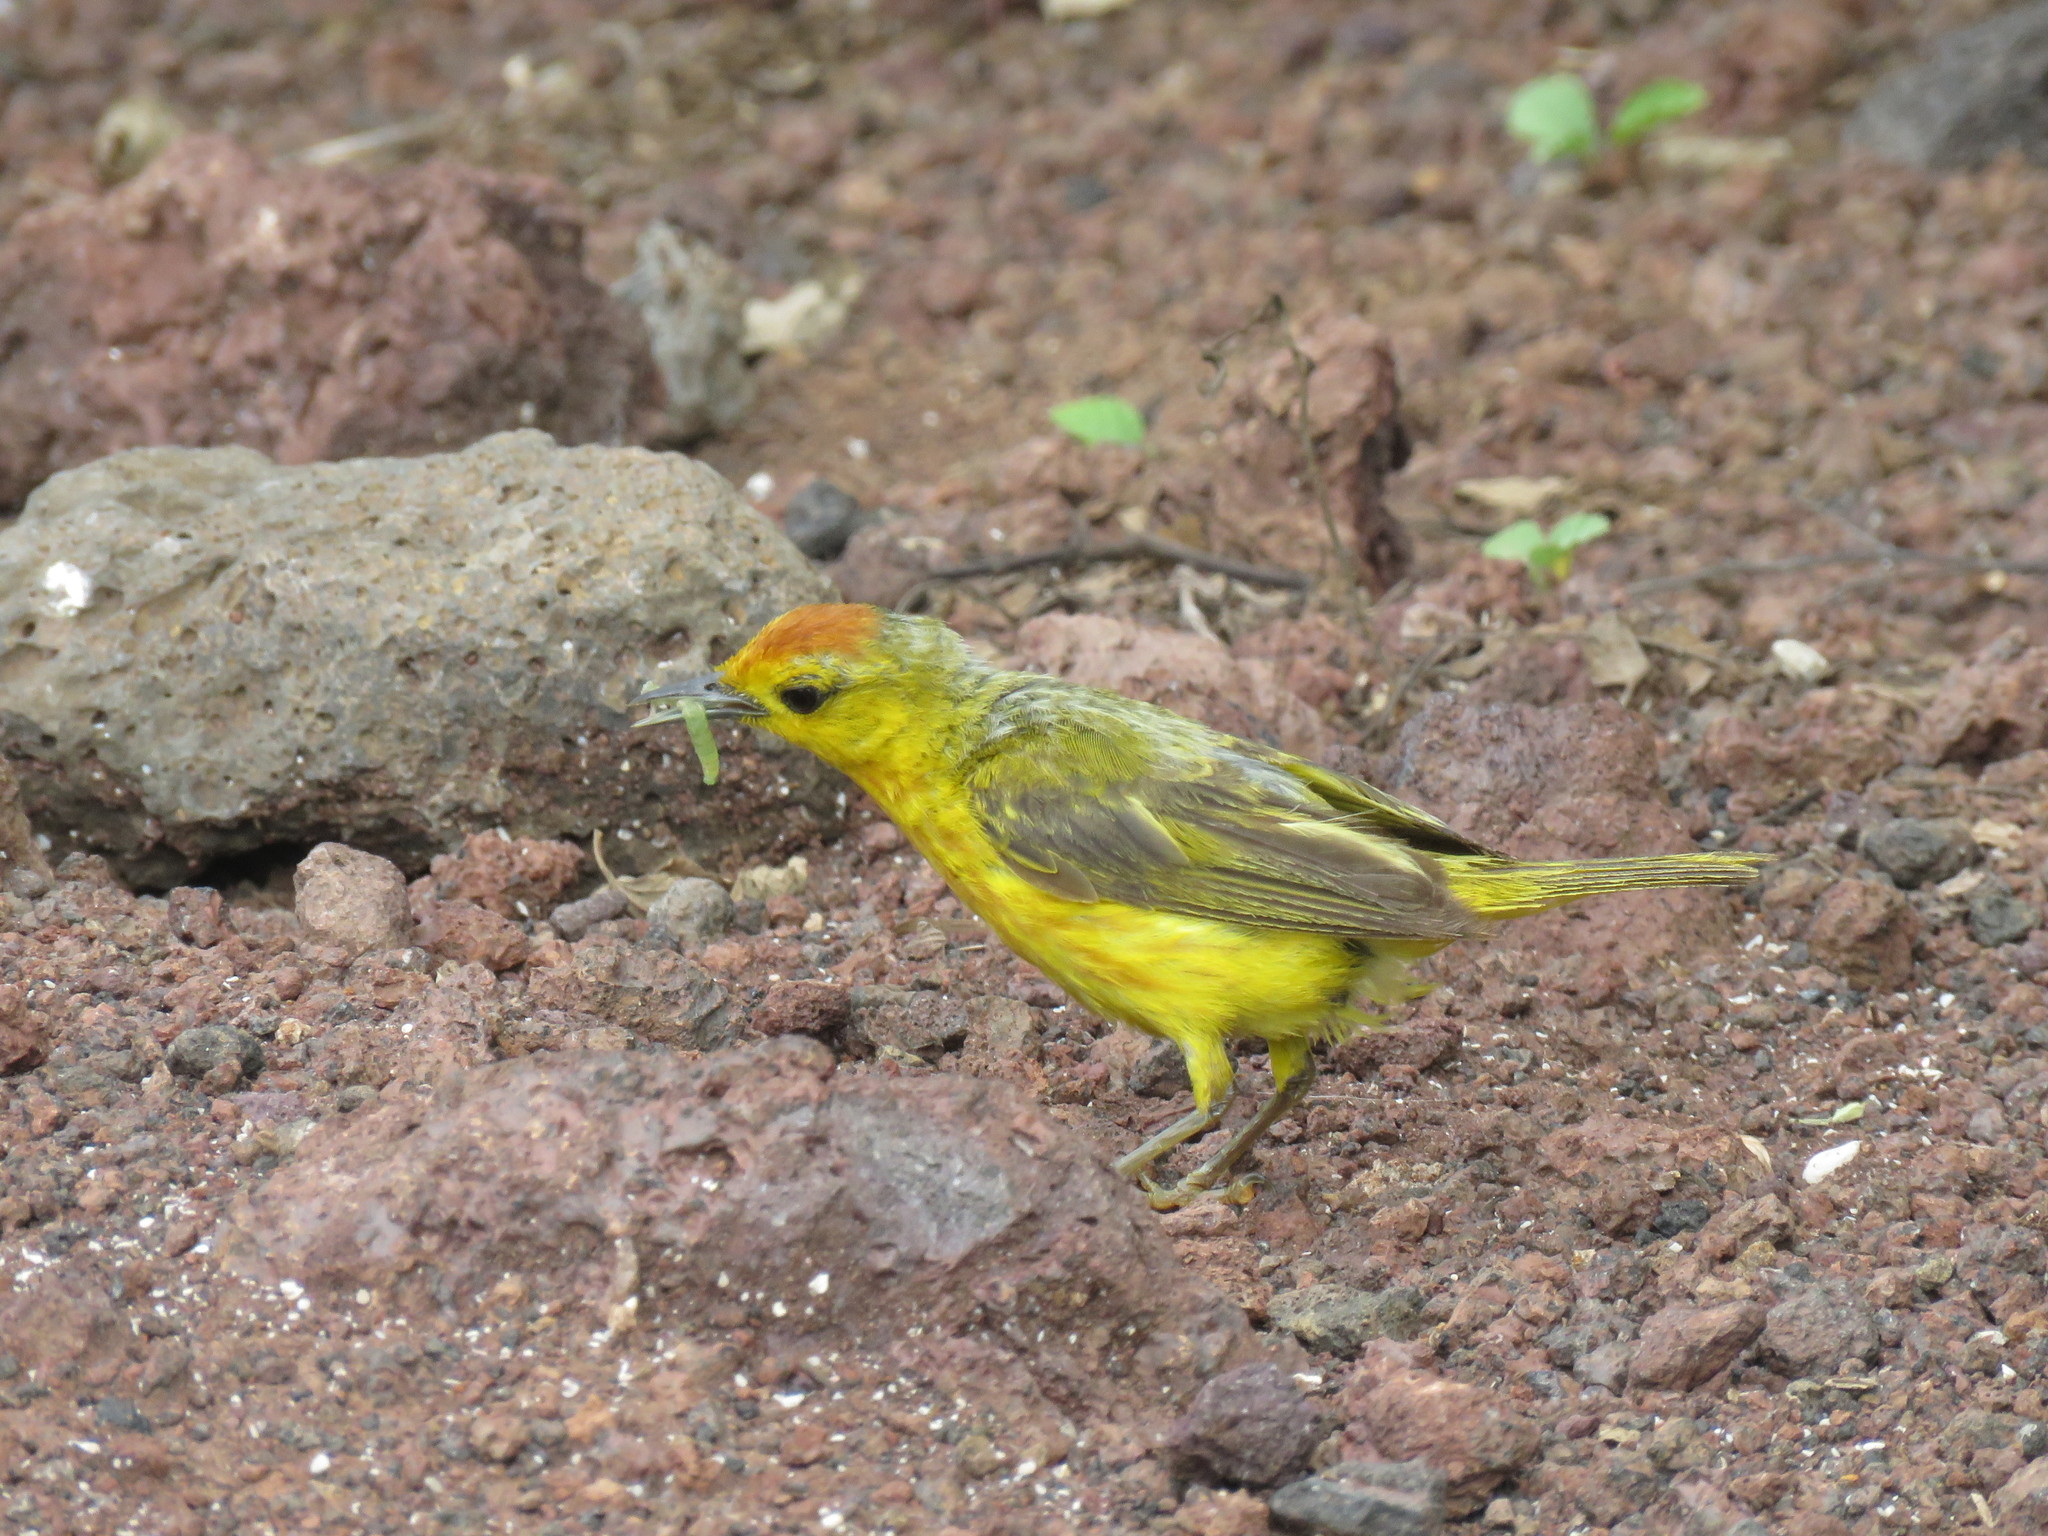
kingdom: Animalia
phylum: Chordata
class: Aves
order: Passeriformes
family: Parulidae
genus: Setophaga
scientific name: Setophaga petechia
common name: Yellow warbler
